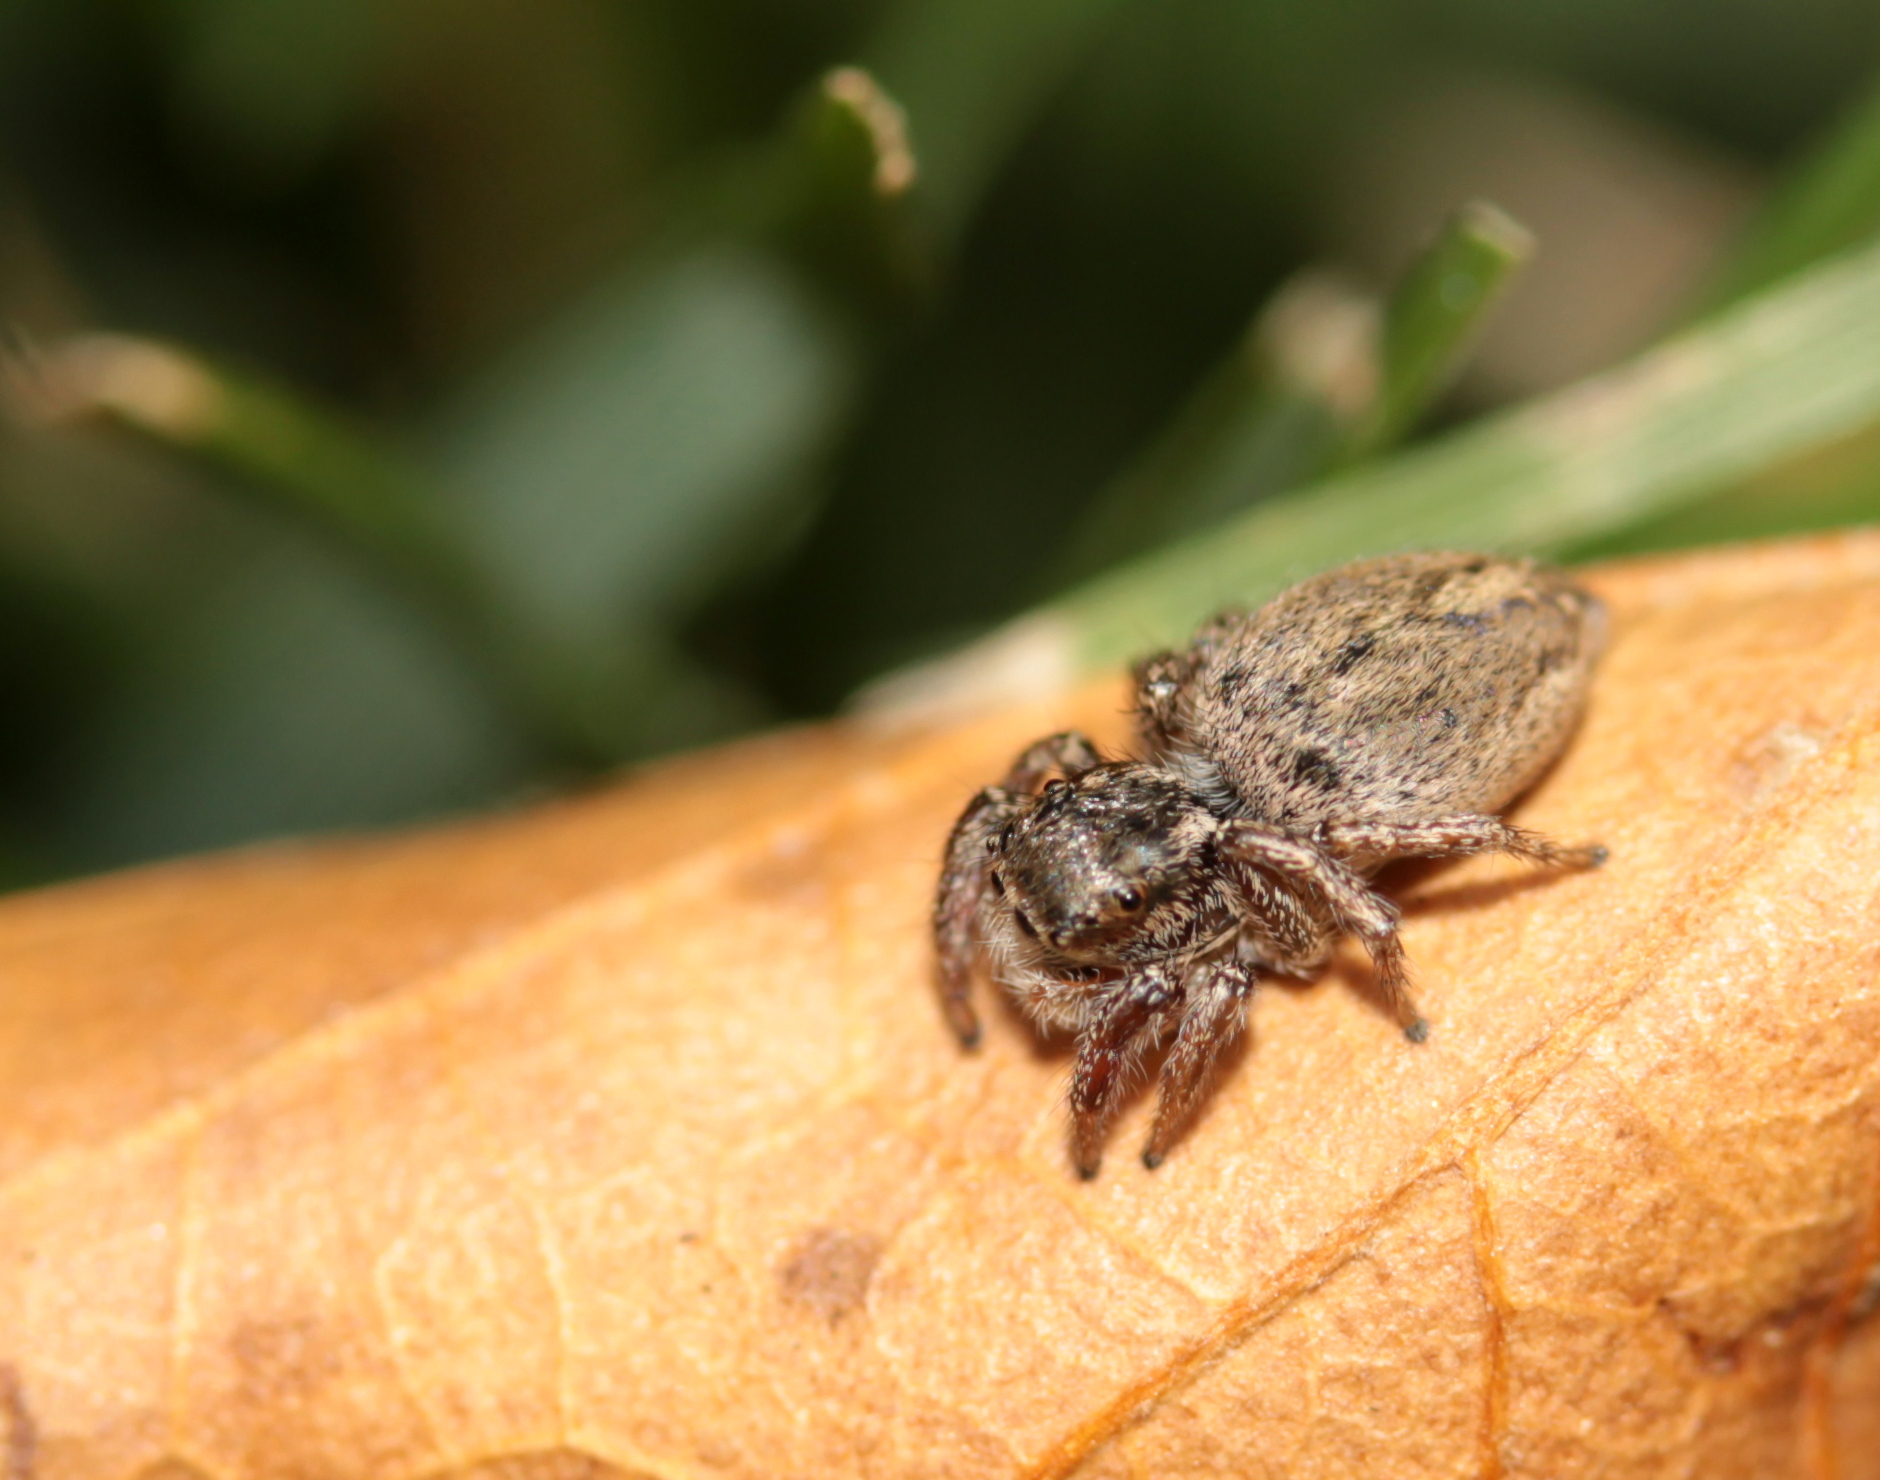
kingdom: Animalia
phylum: Arthropoda
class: Arachnida
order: Araneae
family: Salticidae
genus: Habronattus
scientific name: Habronattus pyrrithrix
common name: Jumping spider
